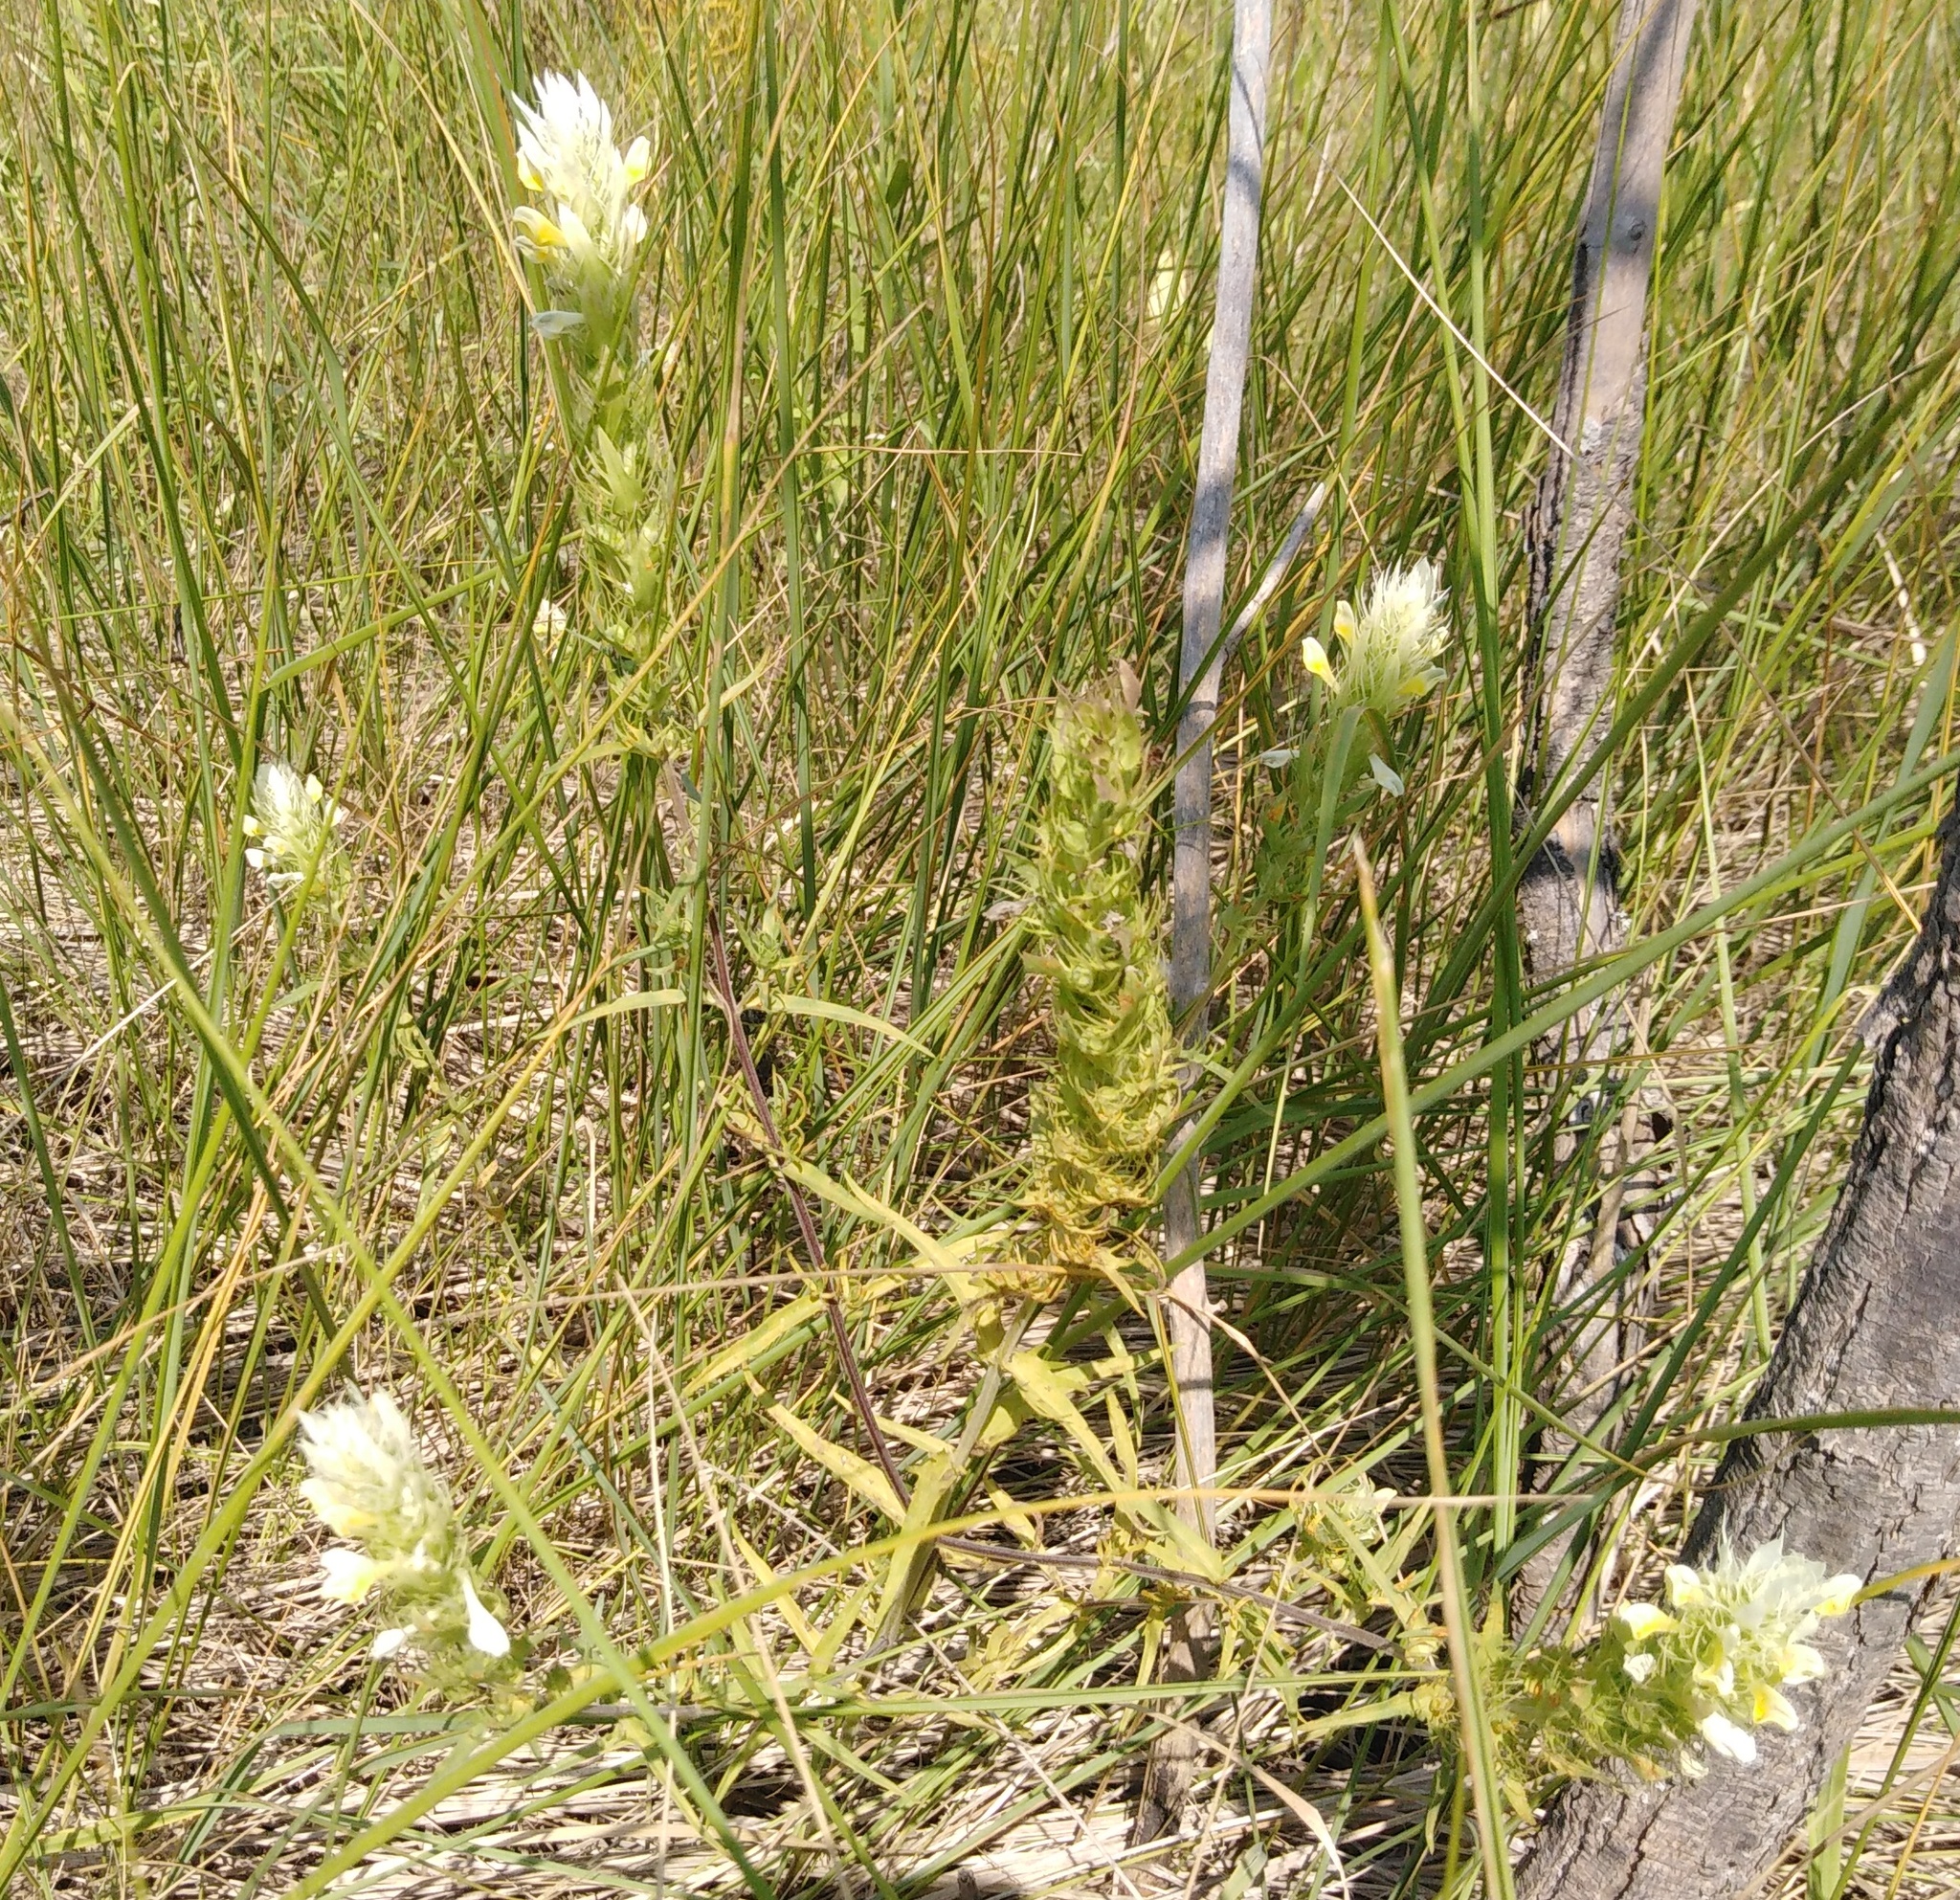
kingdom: Plantae
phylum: Tracheophyta
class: Magnoliopsida
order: Lamiales
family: Orobanchaceae
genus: Melampyrum
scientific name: Melampyrum arvense
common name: Field cow-wheat
